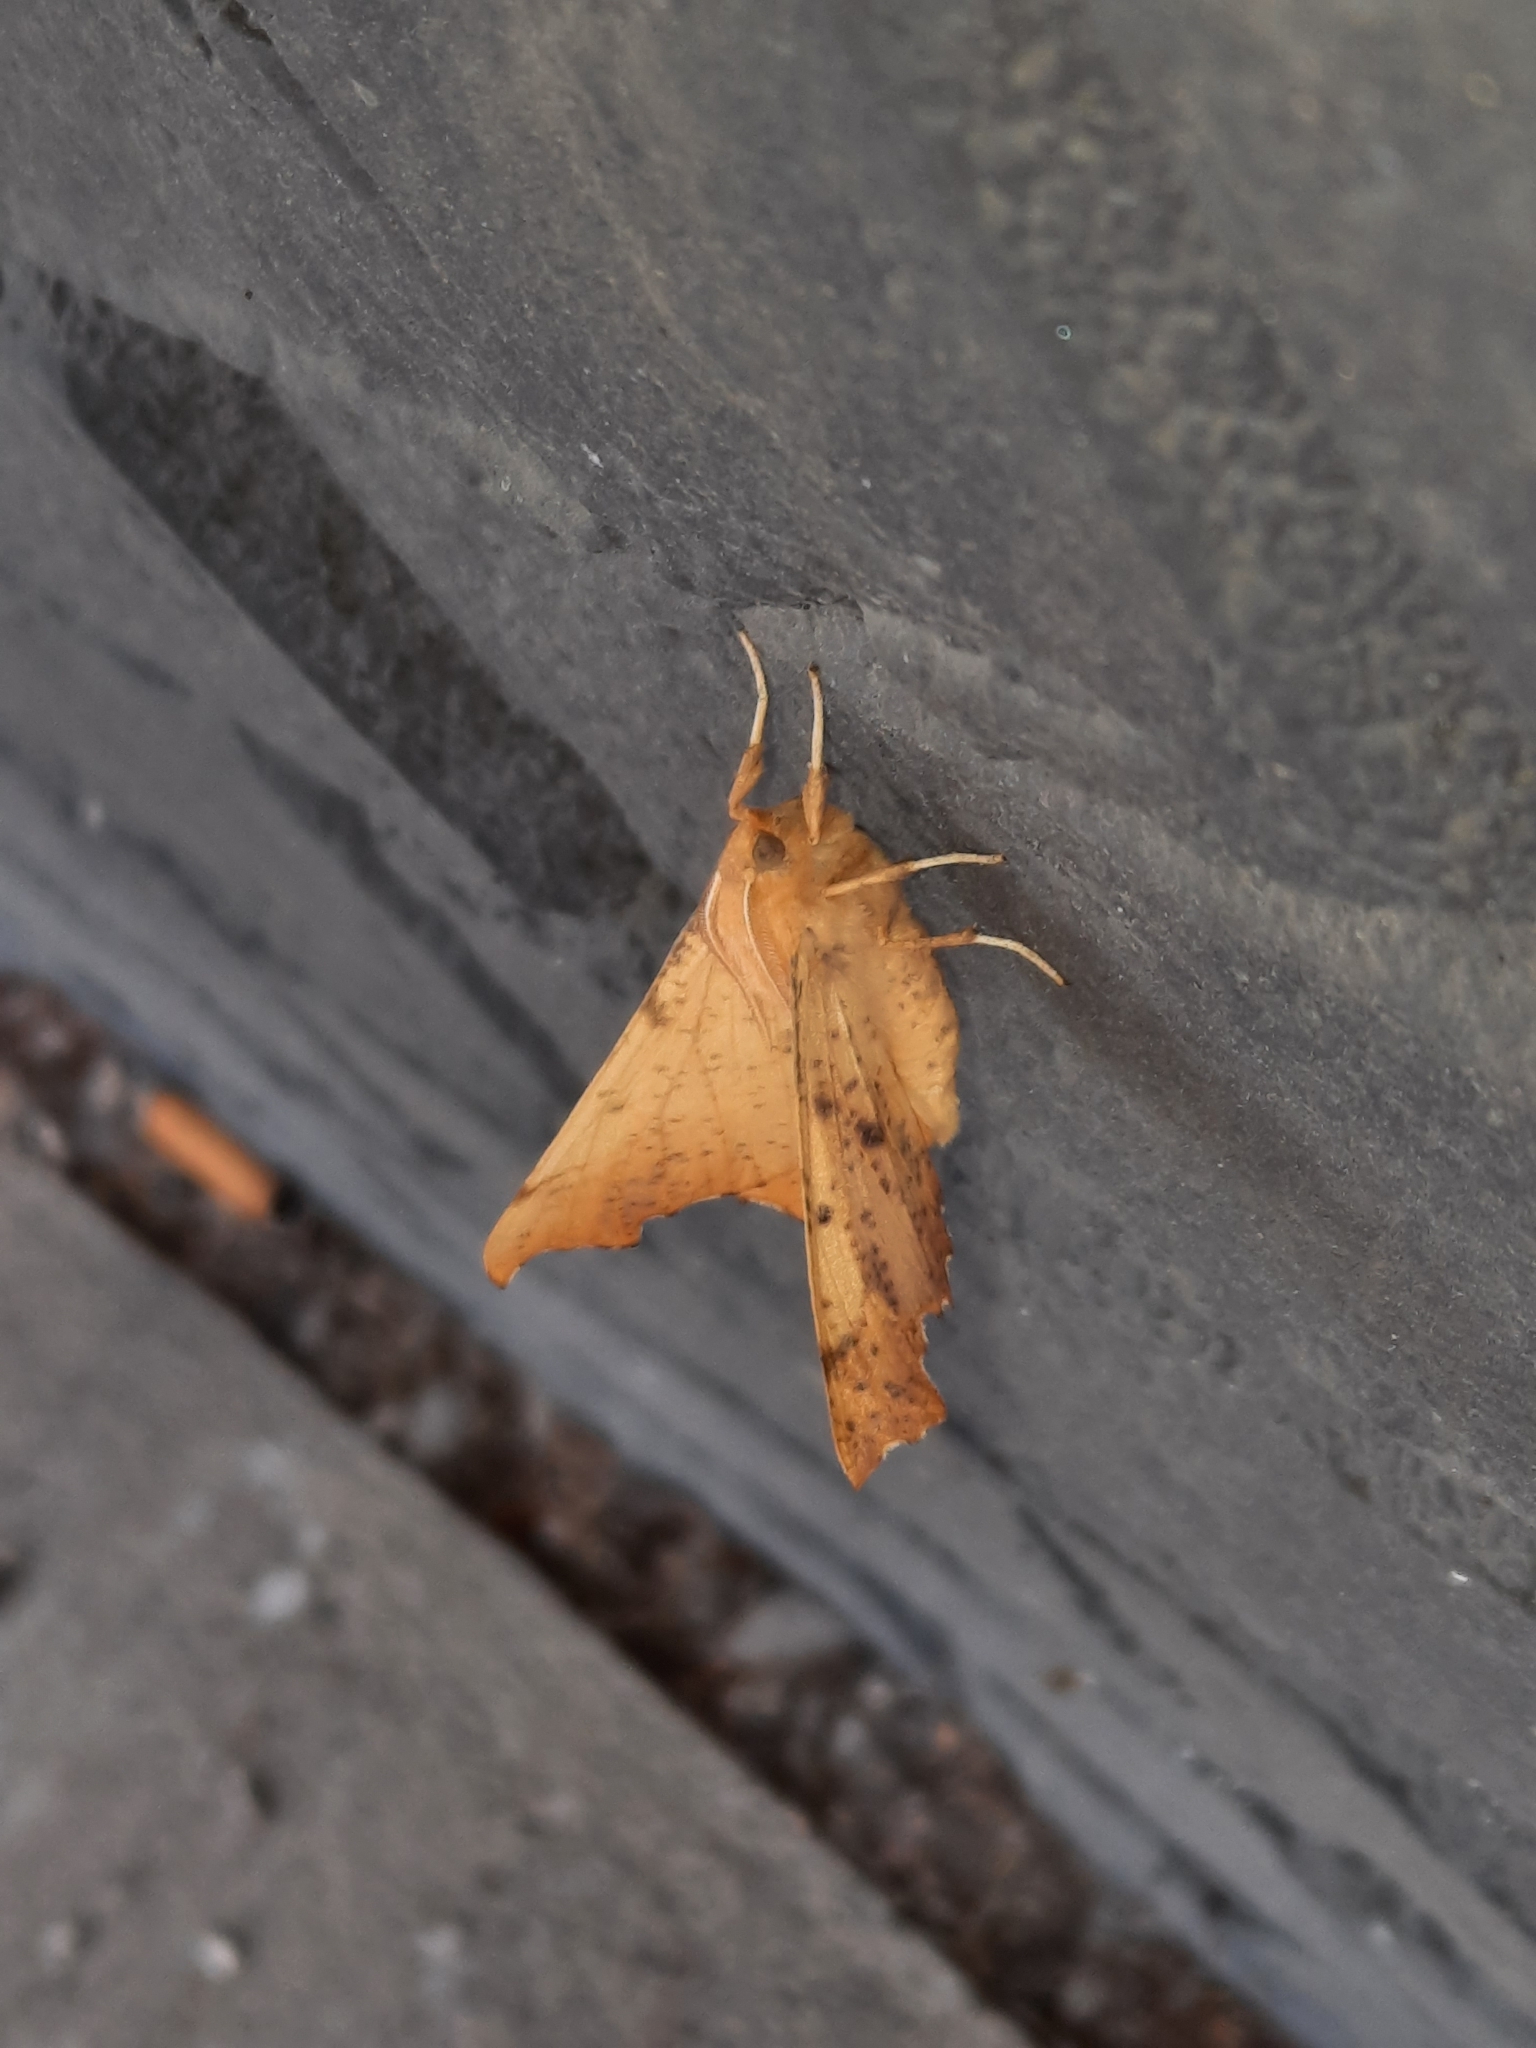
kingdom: Animalia
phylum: Arthropoda
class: Insecta
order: Lepidoptera
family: Geometridae
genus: Ennomos
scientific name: Ennomos magnaria
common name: Maple spanworm
